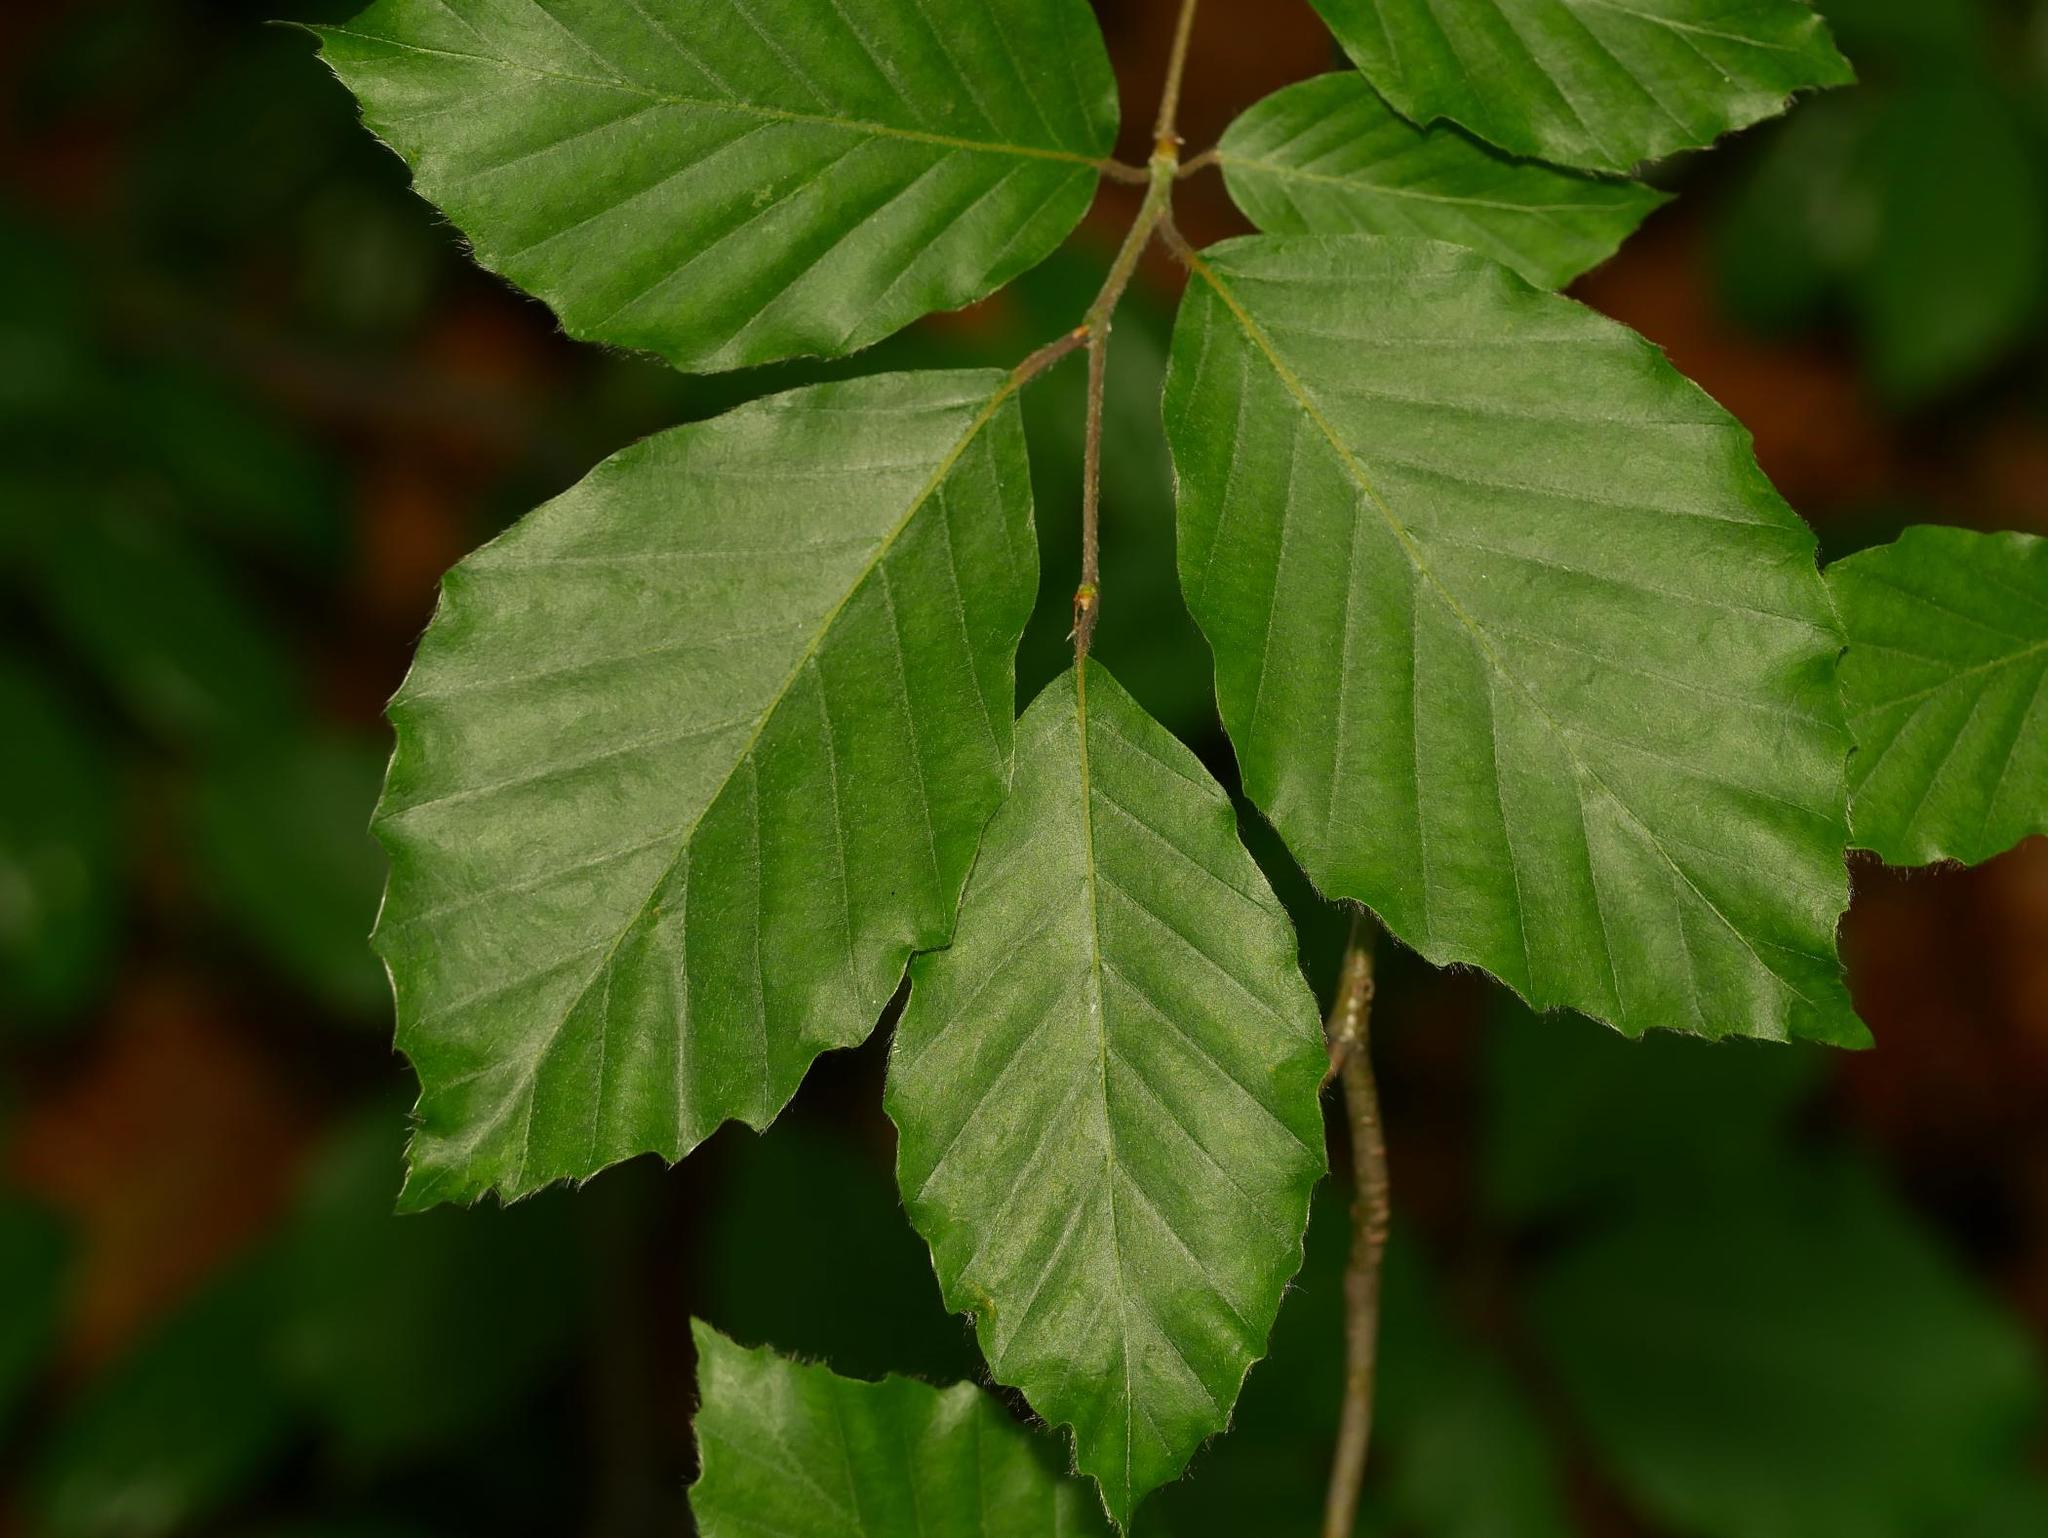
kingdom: Plantae
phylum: Tracheophyta
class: Magnoliopsida
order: Fagales
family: Fagaceae
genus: Fagus
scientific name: Fagus sylvatica
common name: Beech
